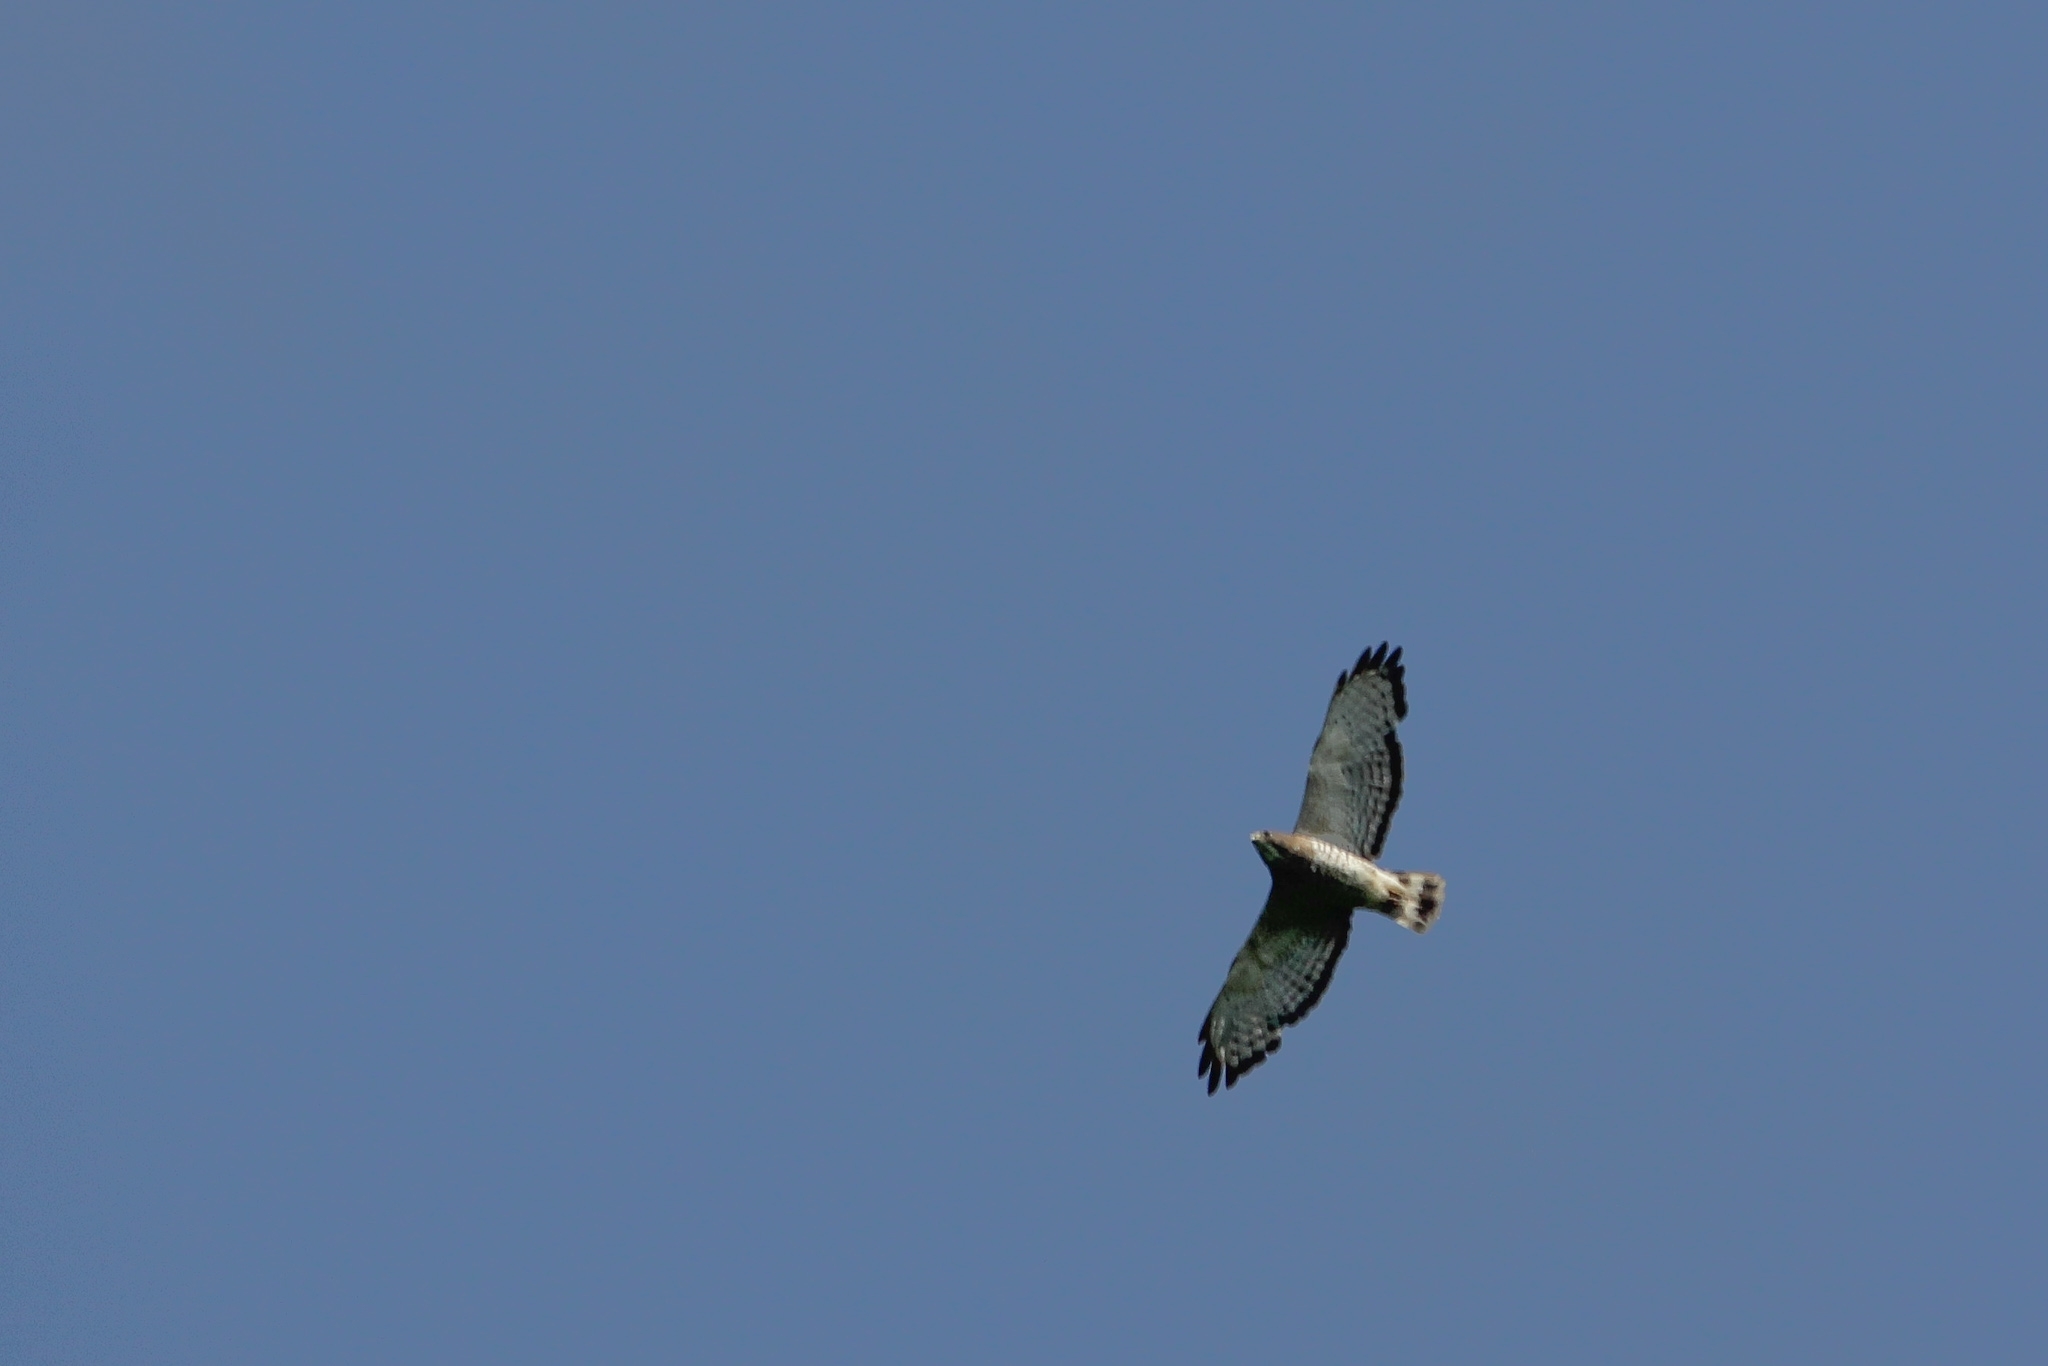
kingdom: Animalia
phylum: Chordata
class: Aves
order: Accipitriformes
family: Accipitridae
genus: Buteo
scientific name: Buteo platypterus
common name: Broad-winged hawk
